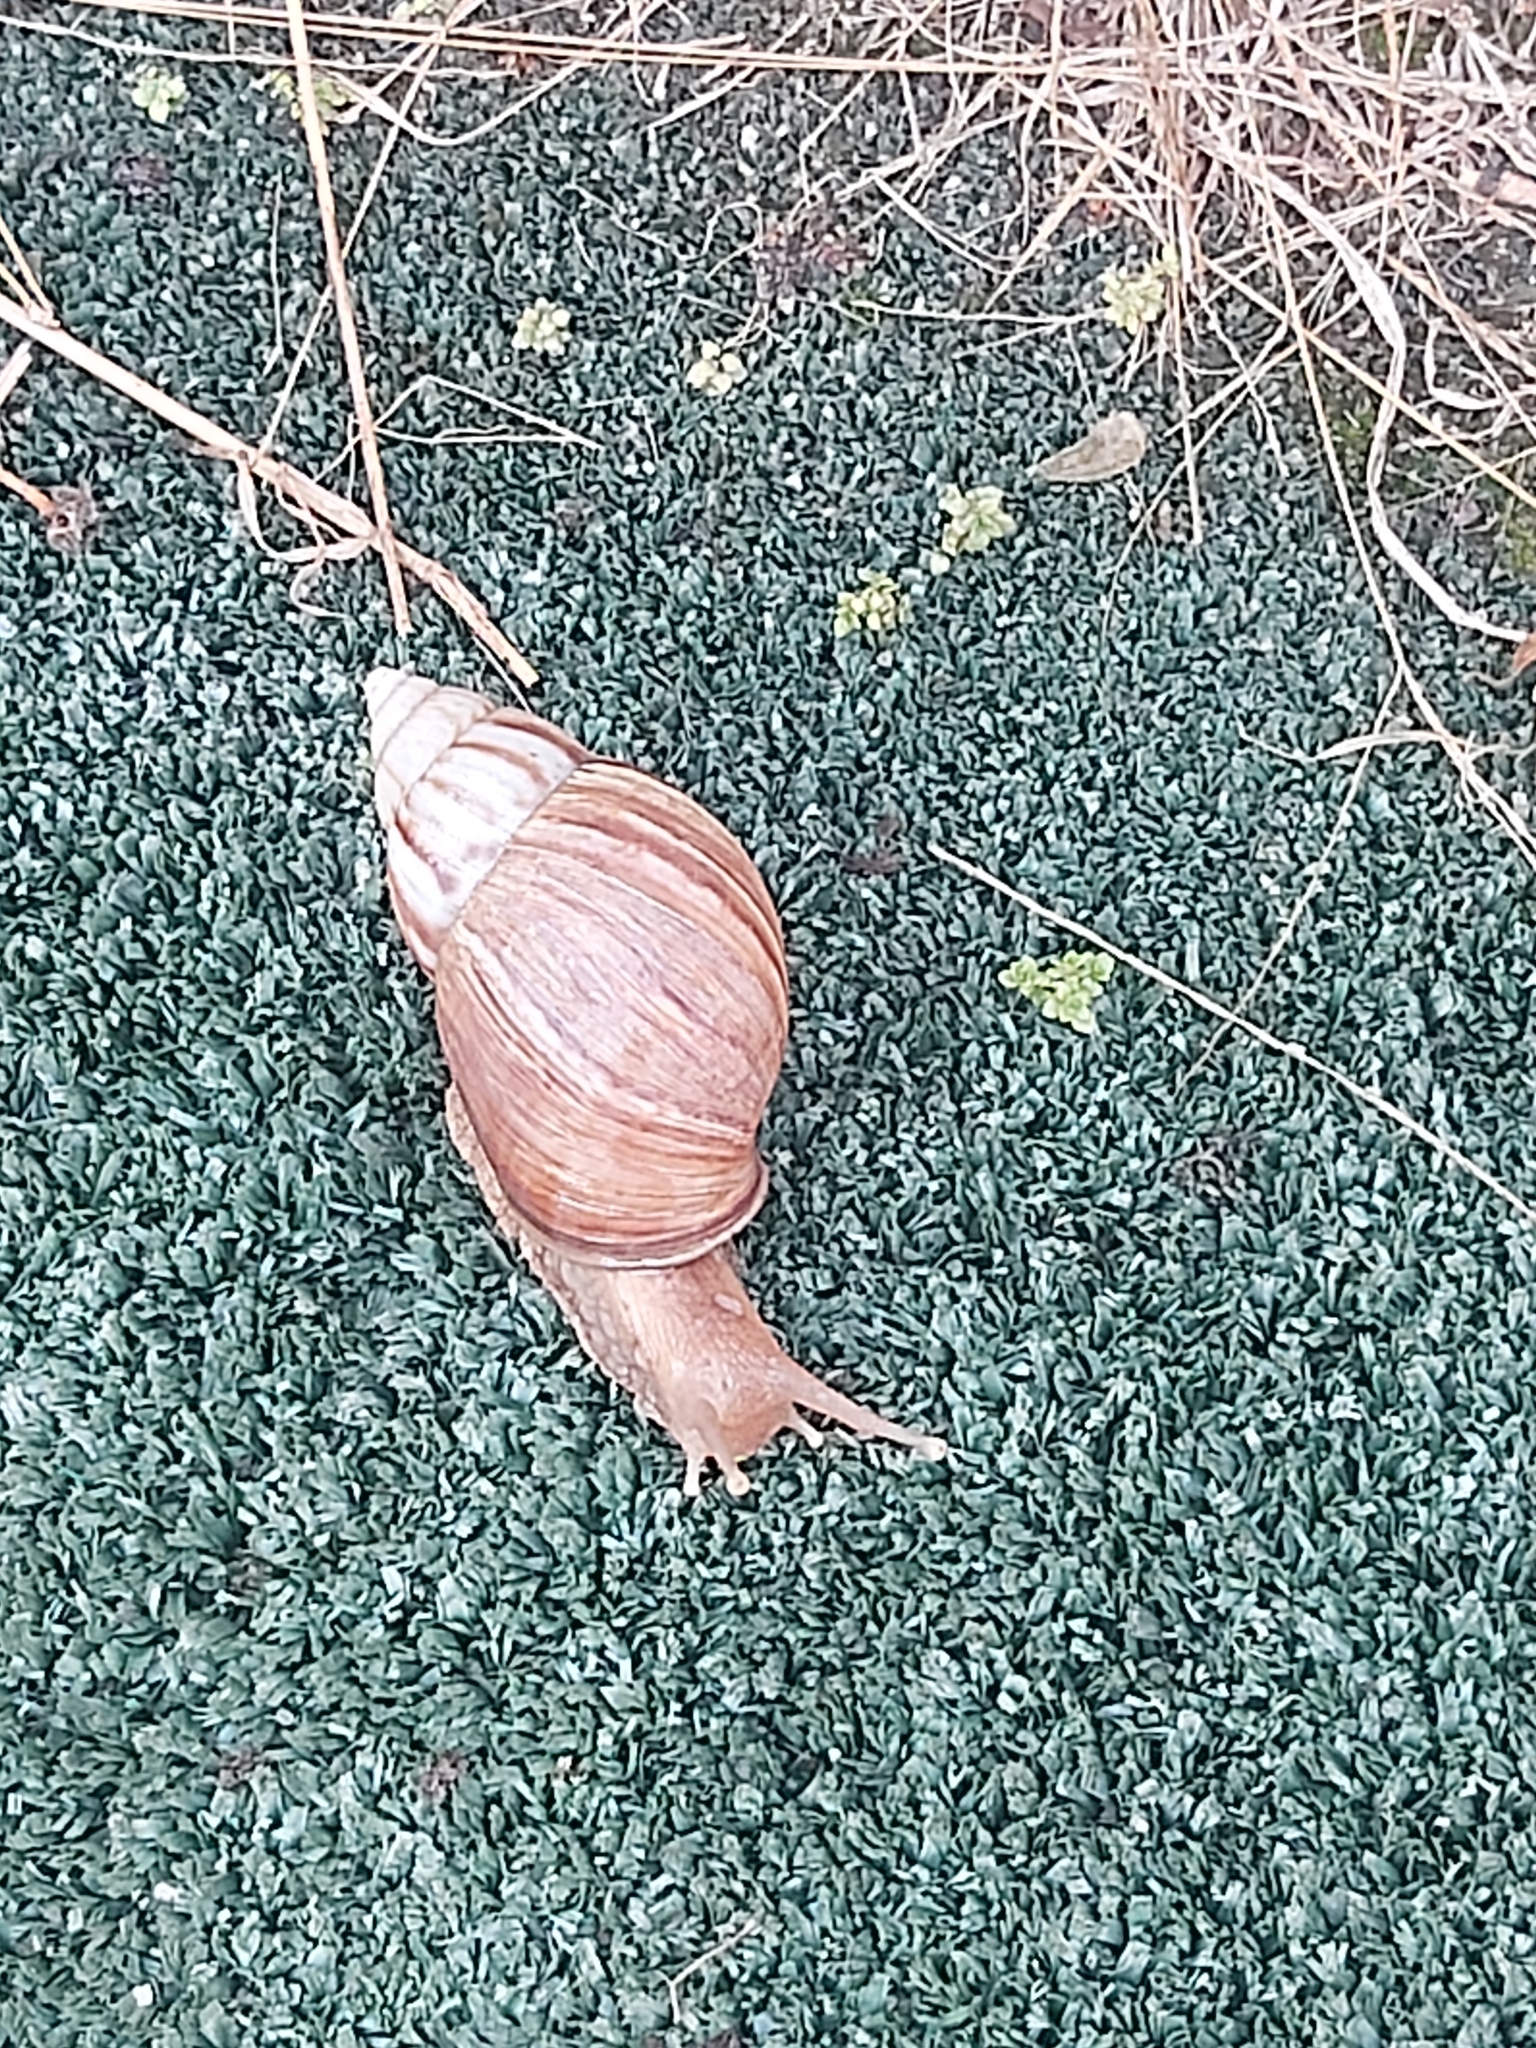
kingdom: Animalia
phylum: Mollusca
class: Gastropoda
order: Stylommatophora
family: Achatinidae
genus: Lissachatina
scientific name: Lissachatina fulica
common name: Giant african snail
